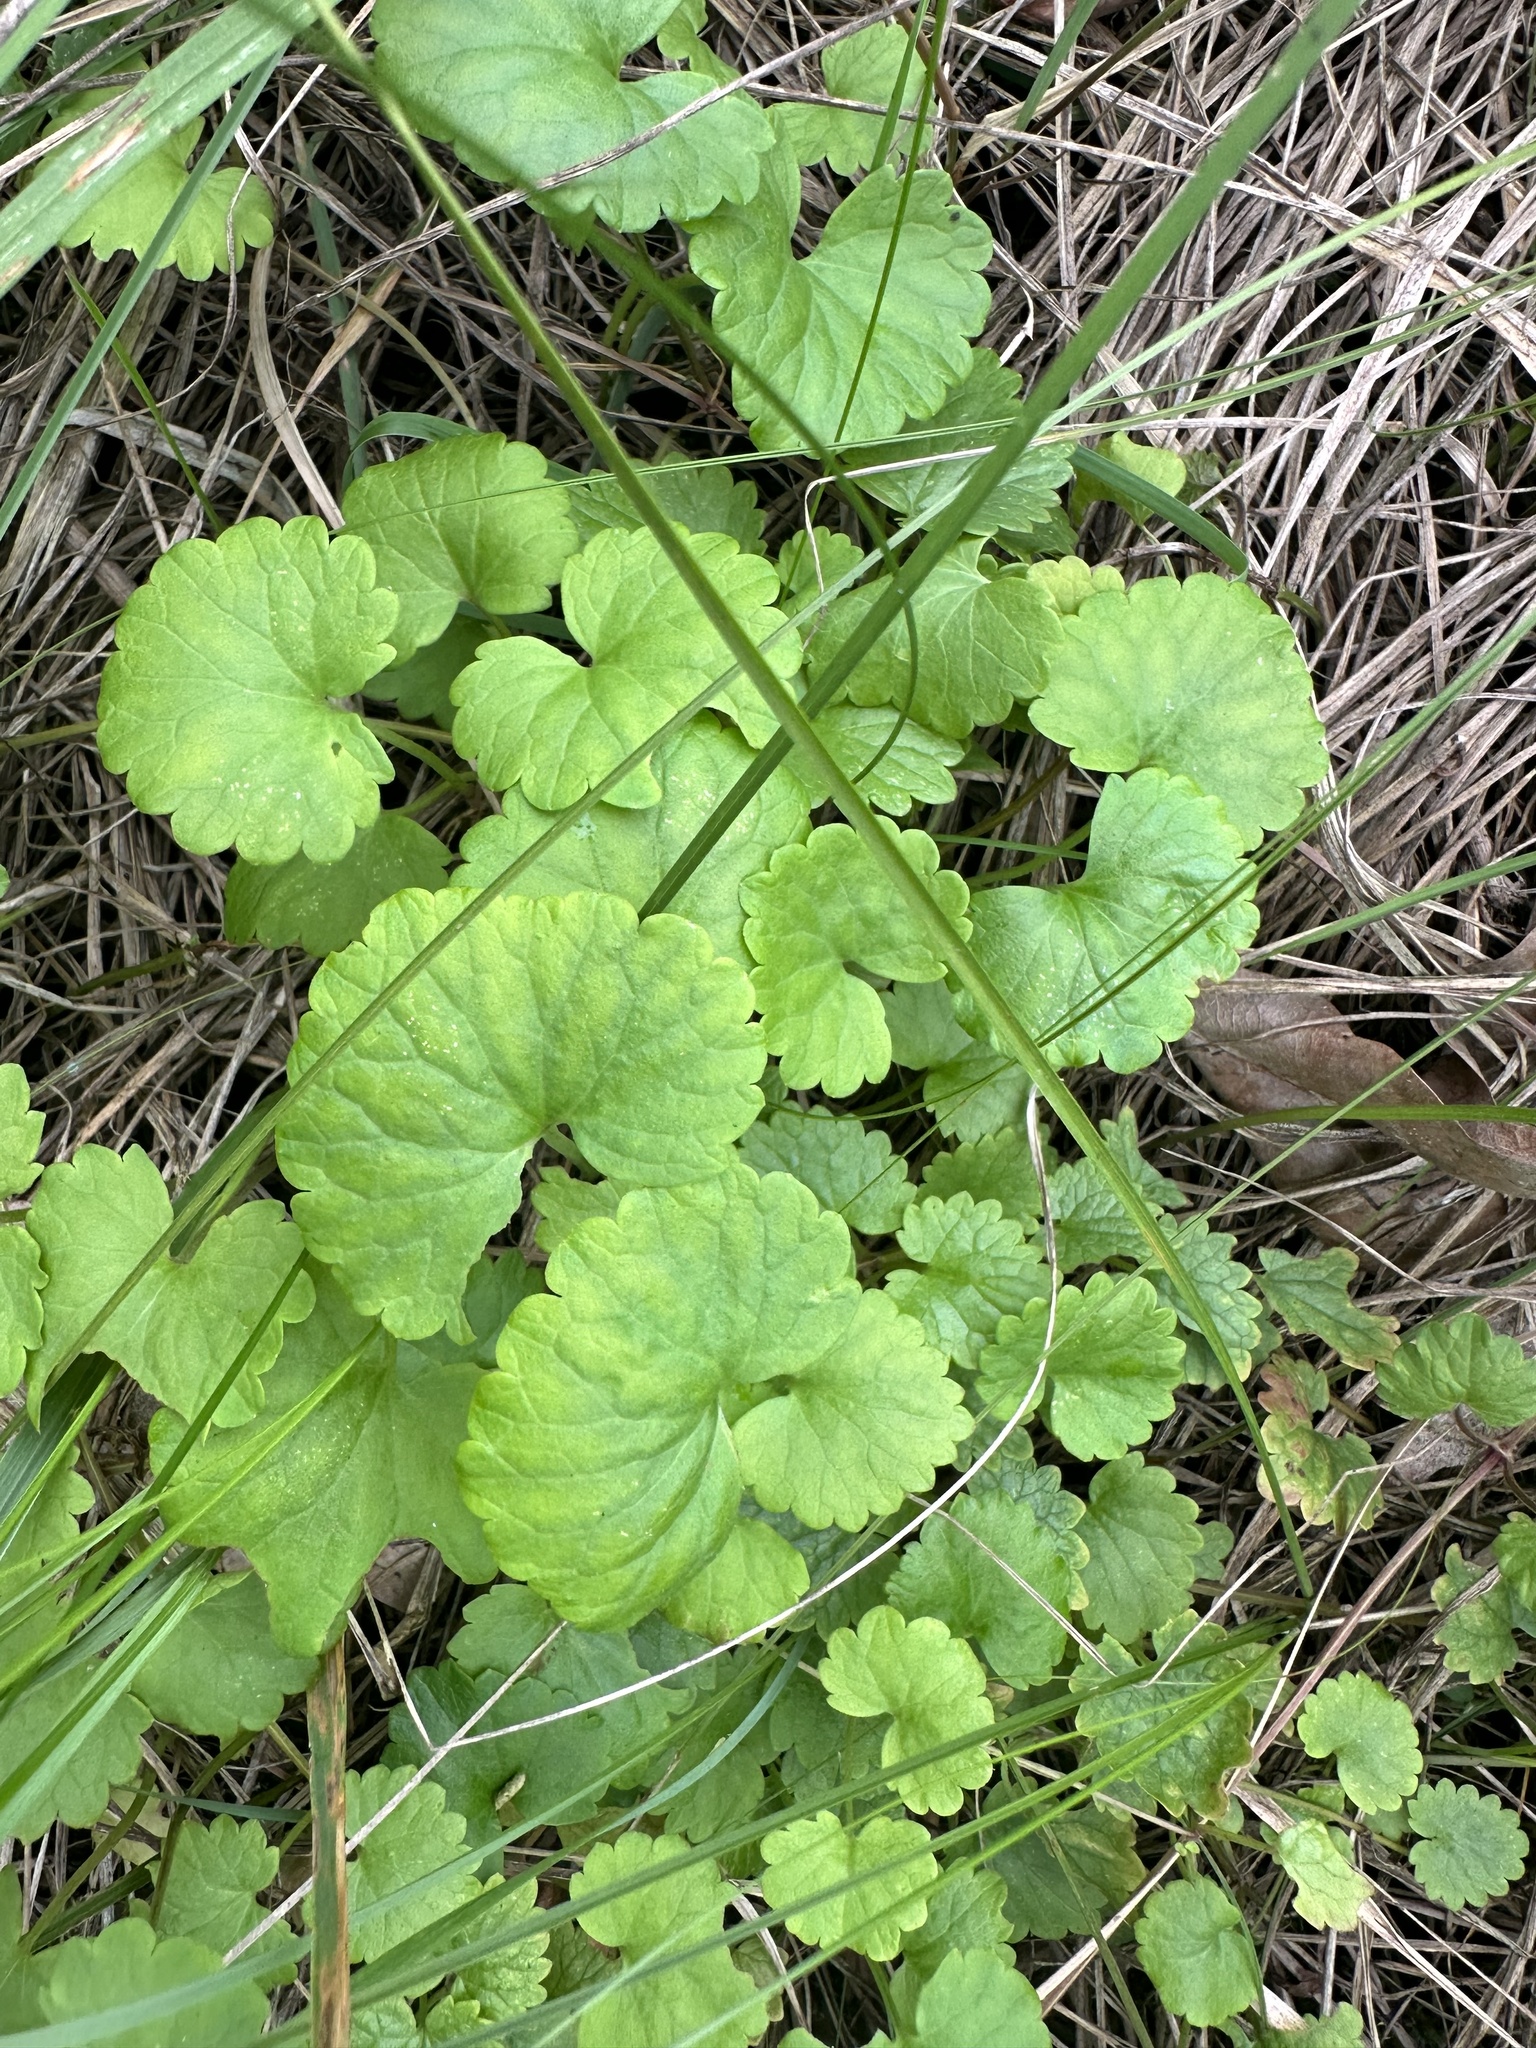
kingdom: Plantae
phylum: Tracheophyta
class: Magnoliopsida
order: Lamiales
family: Lamiaceae
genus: Glechoma
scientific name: Glechoma hederacea
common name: Ground ivy
